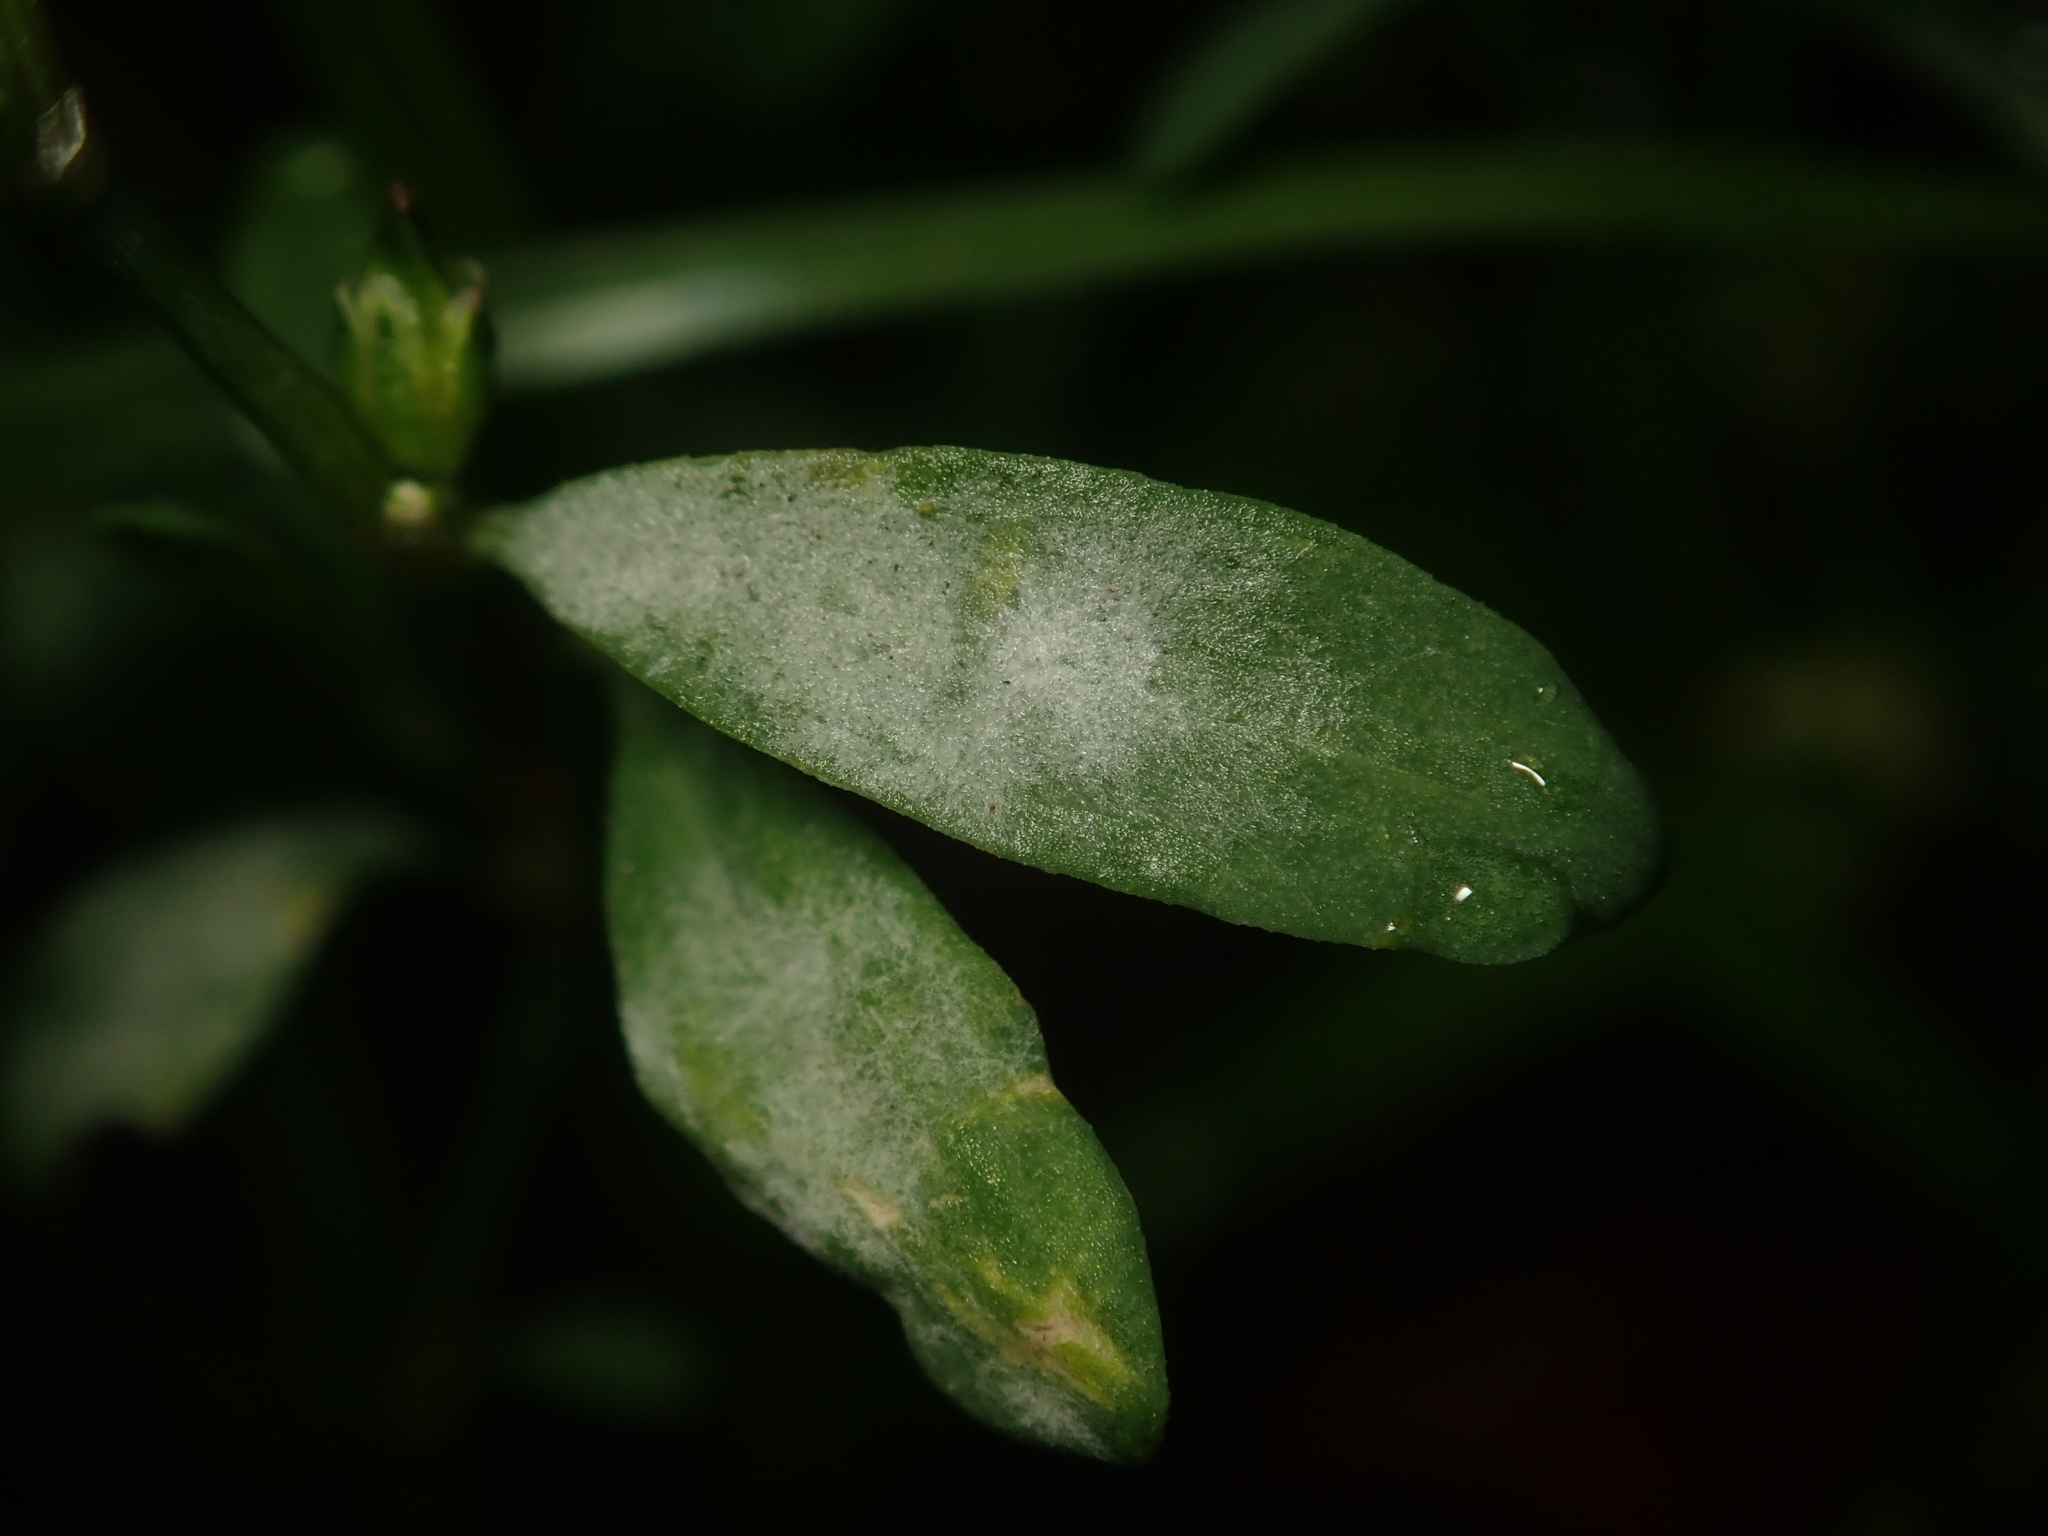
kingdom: Fungi
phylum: Ascomycota
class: Leotiomycetes
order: Helotiales
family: Erysiphaceae
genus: Erysiphe
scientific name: Erysiphe polygoni
